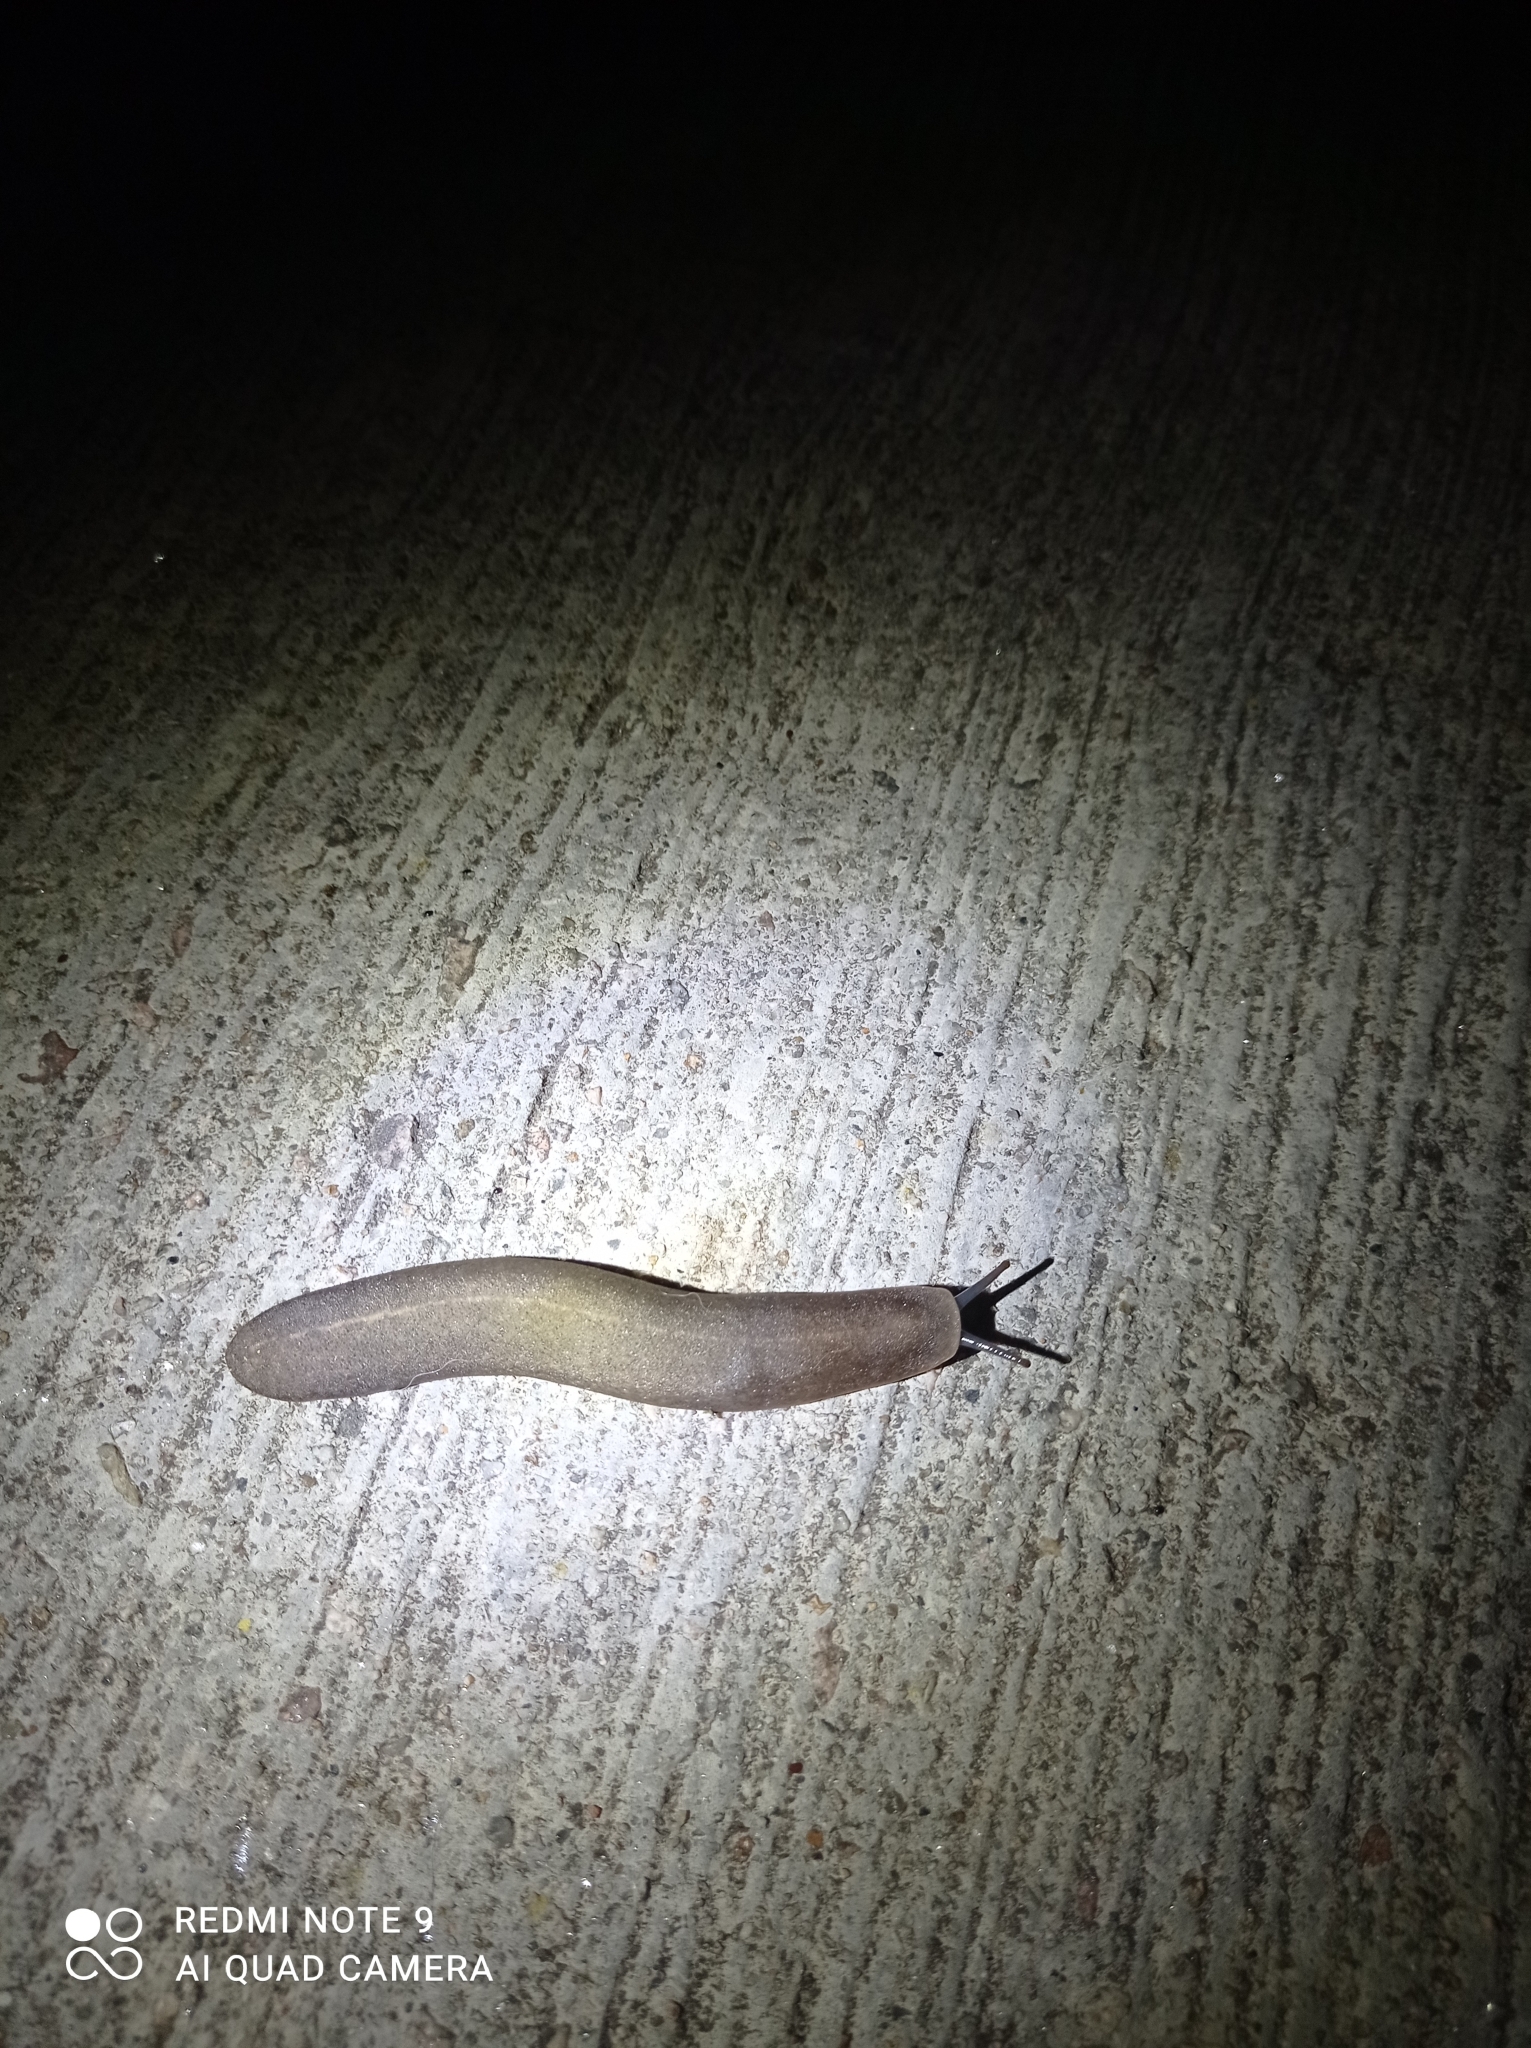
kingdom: Animalia
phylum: Mollusca
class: Gastropoda
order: Systellommatophora
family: Veronicellidae
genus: Valiguna
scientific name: Valiguna siamensis
